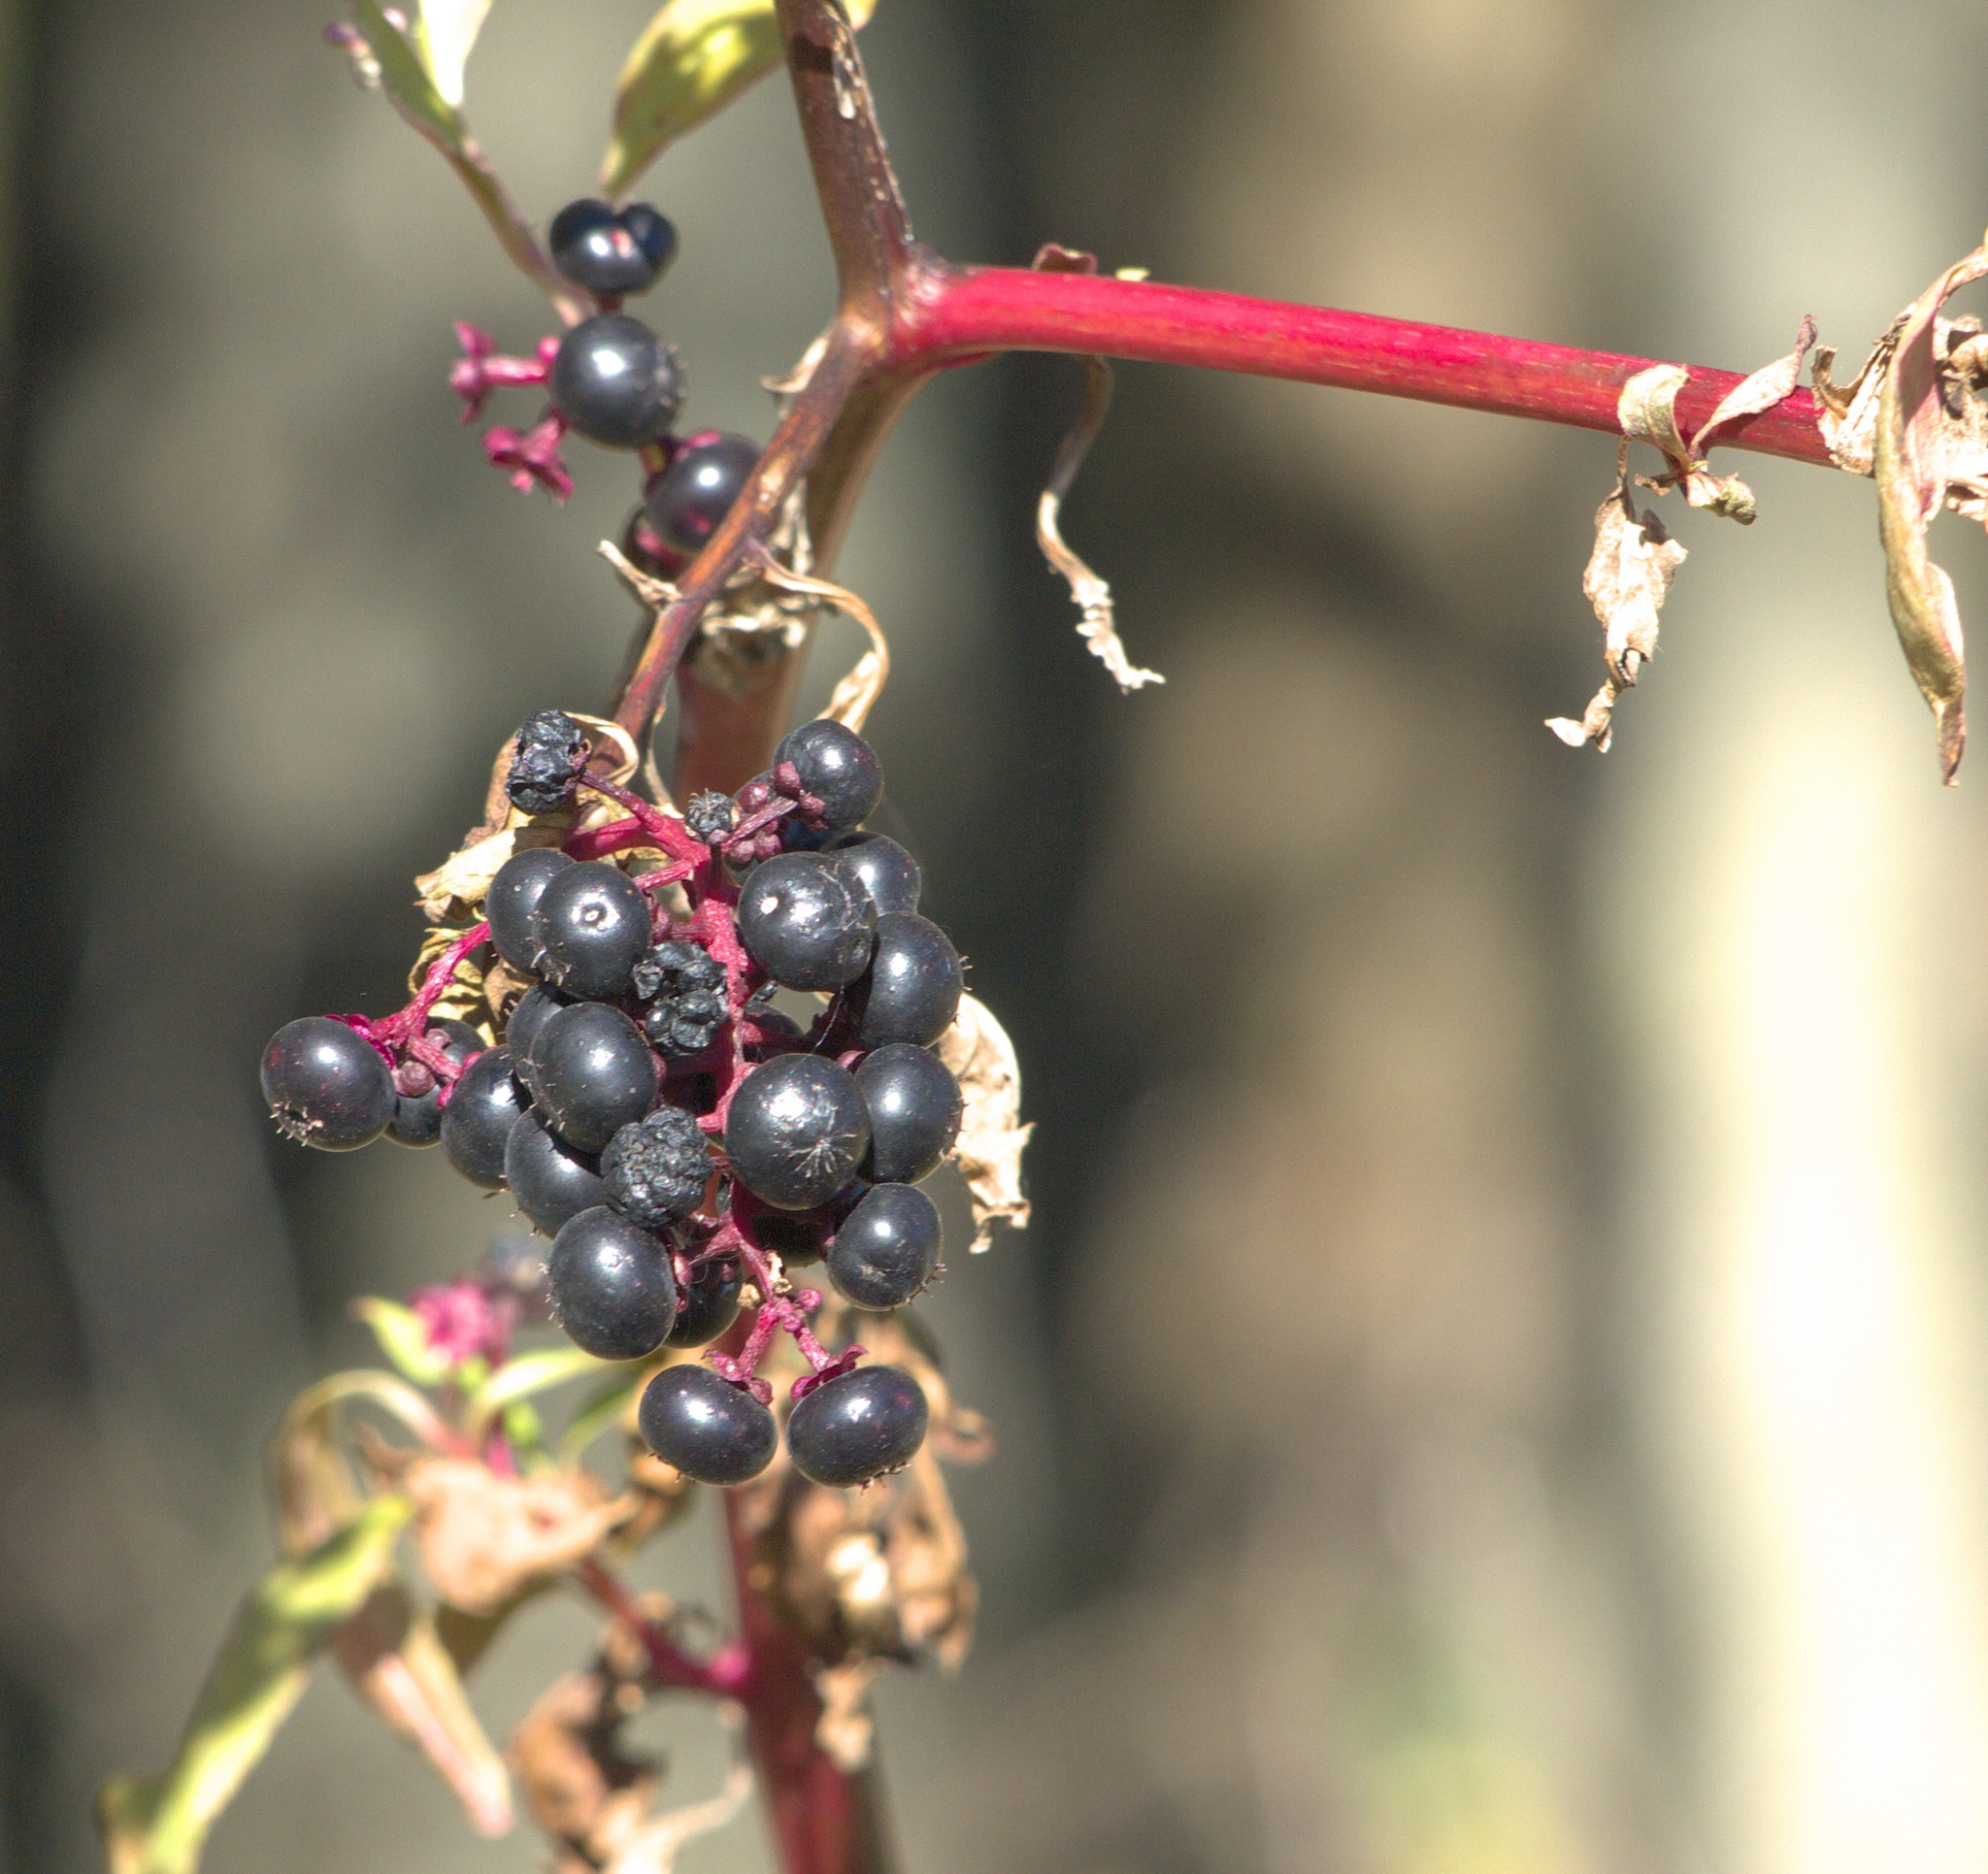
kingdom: Plantae
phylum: Tracheophyta
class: Magnoliopsida
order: Caryophyllales
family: Phytolaccaceae
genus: Phytolacca
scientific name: Phytolacca americana
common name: American pokeweed
